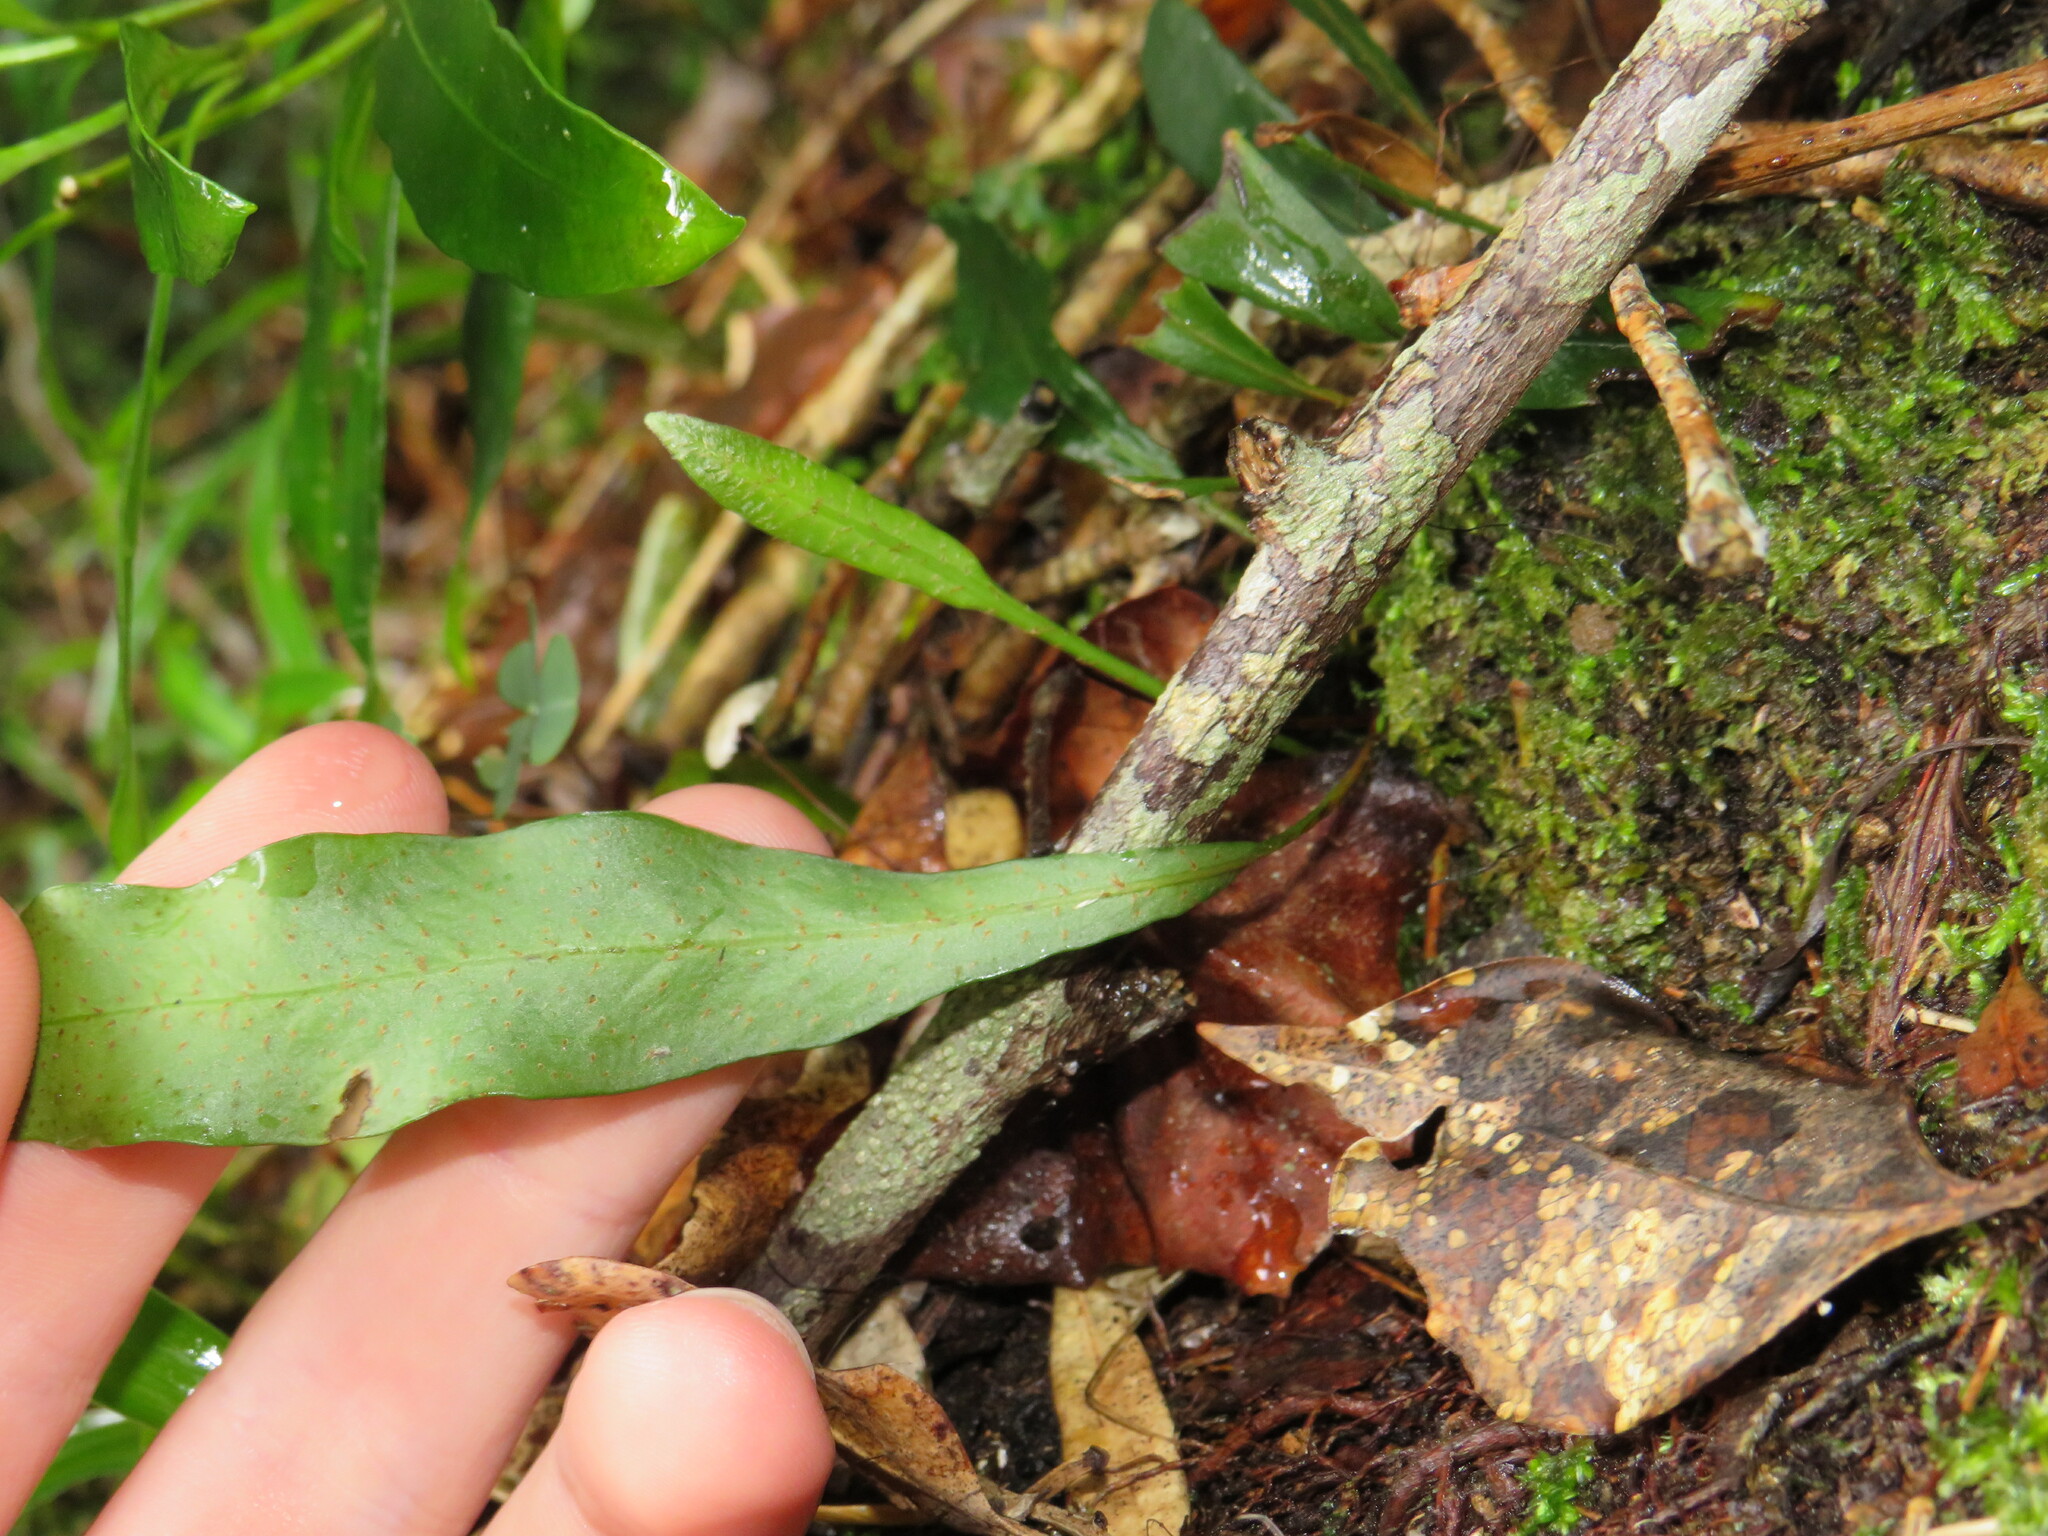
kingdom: Plantae
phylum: Tracheophyta
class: Polypodiopsida
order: Polypodiales
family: Dryopteridaceae
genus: Elaphoglossum
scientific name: Elaphoglossum angustatum
